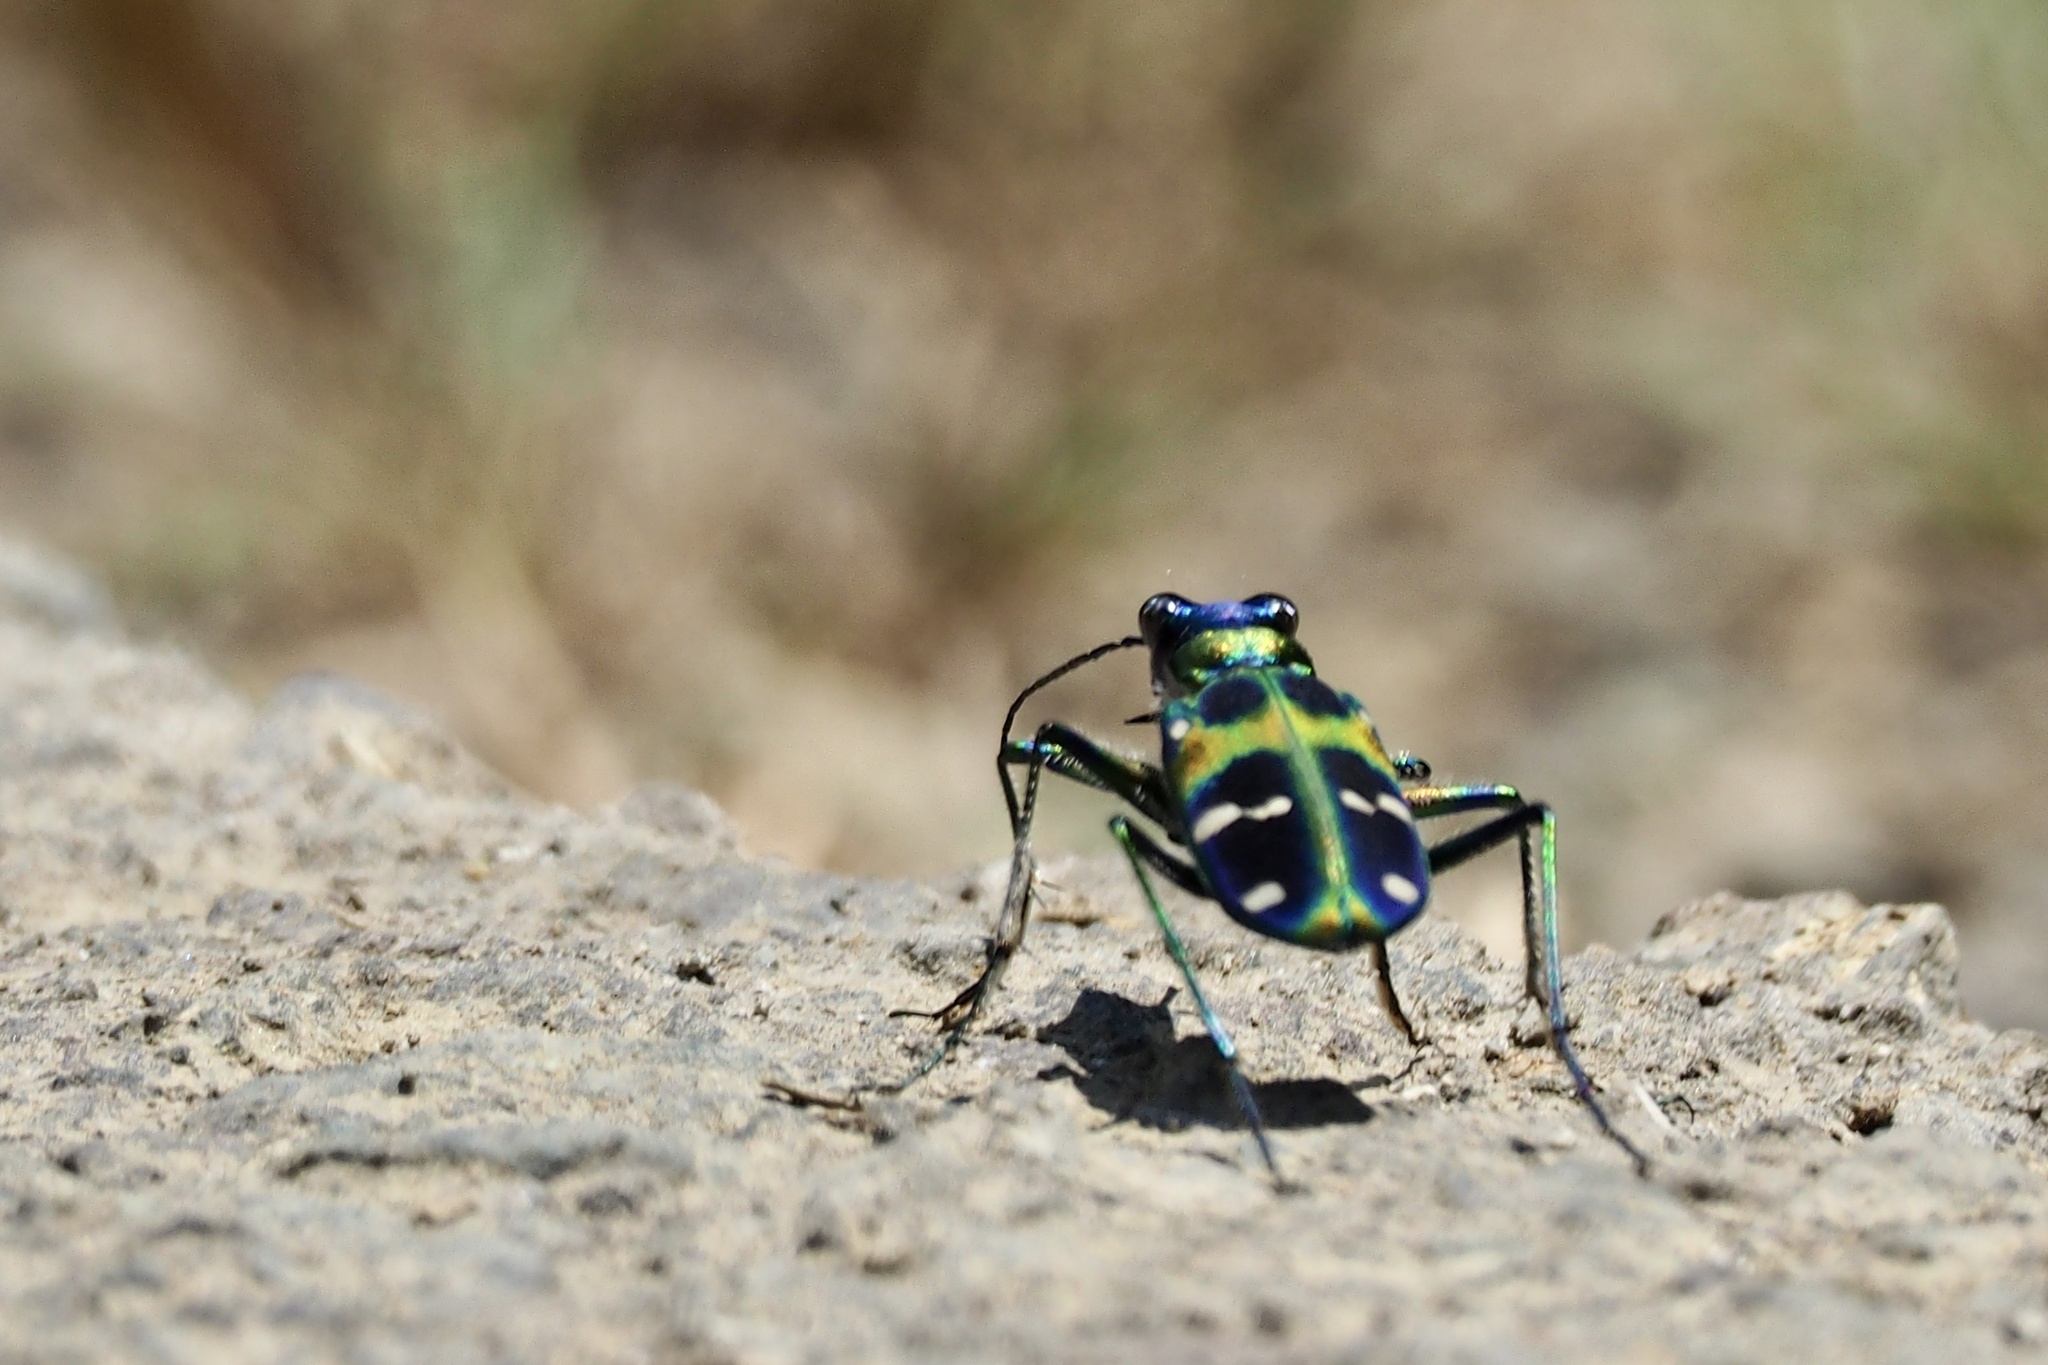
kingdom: Animalia
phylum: Arthropoda
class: Insecta
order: Coleoptera
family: Carabidae
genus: Cicindela
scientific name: Cicindela chinensis
